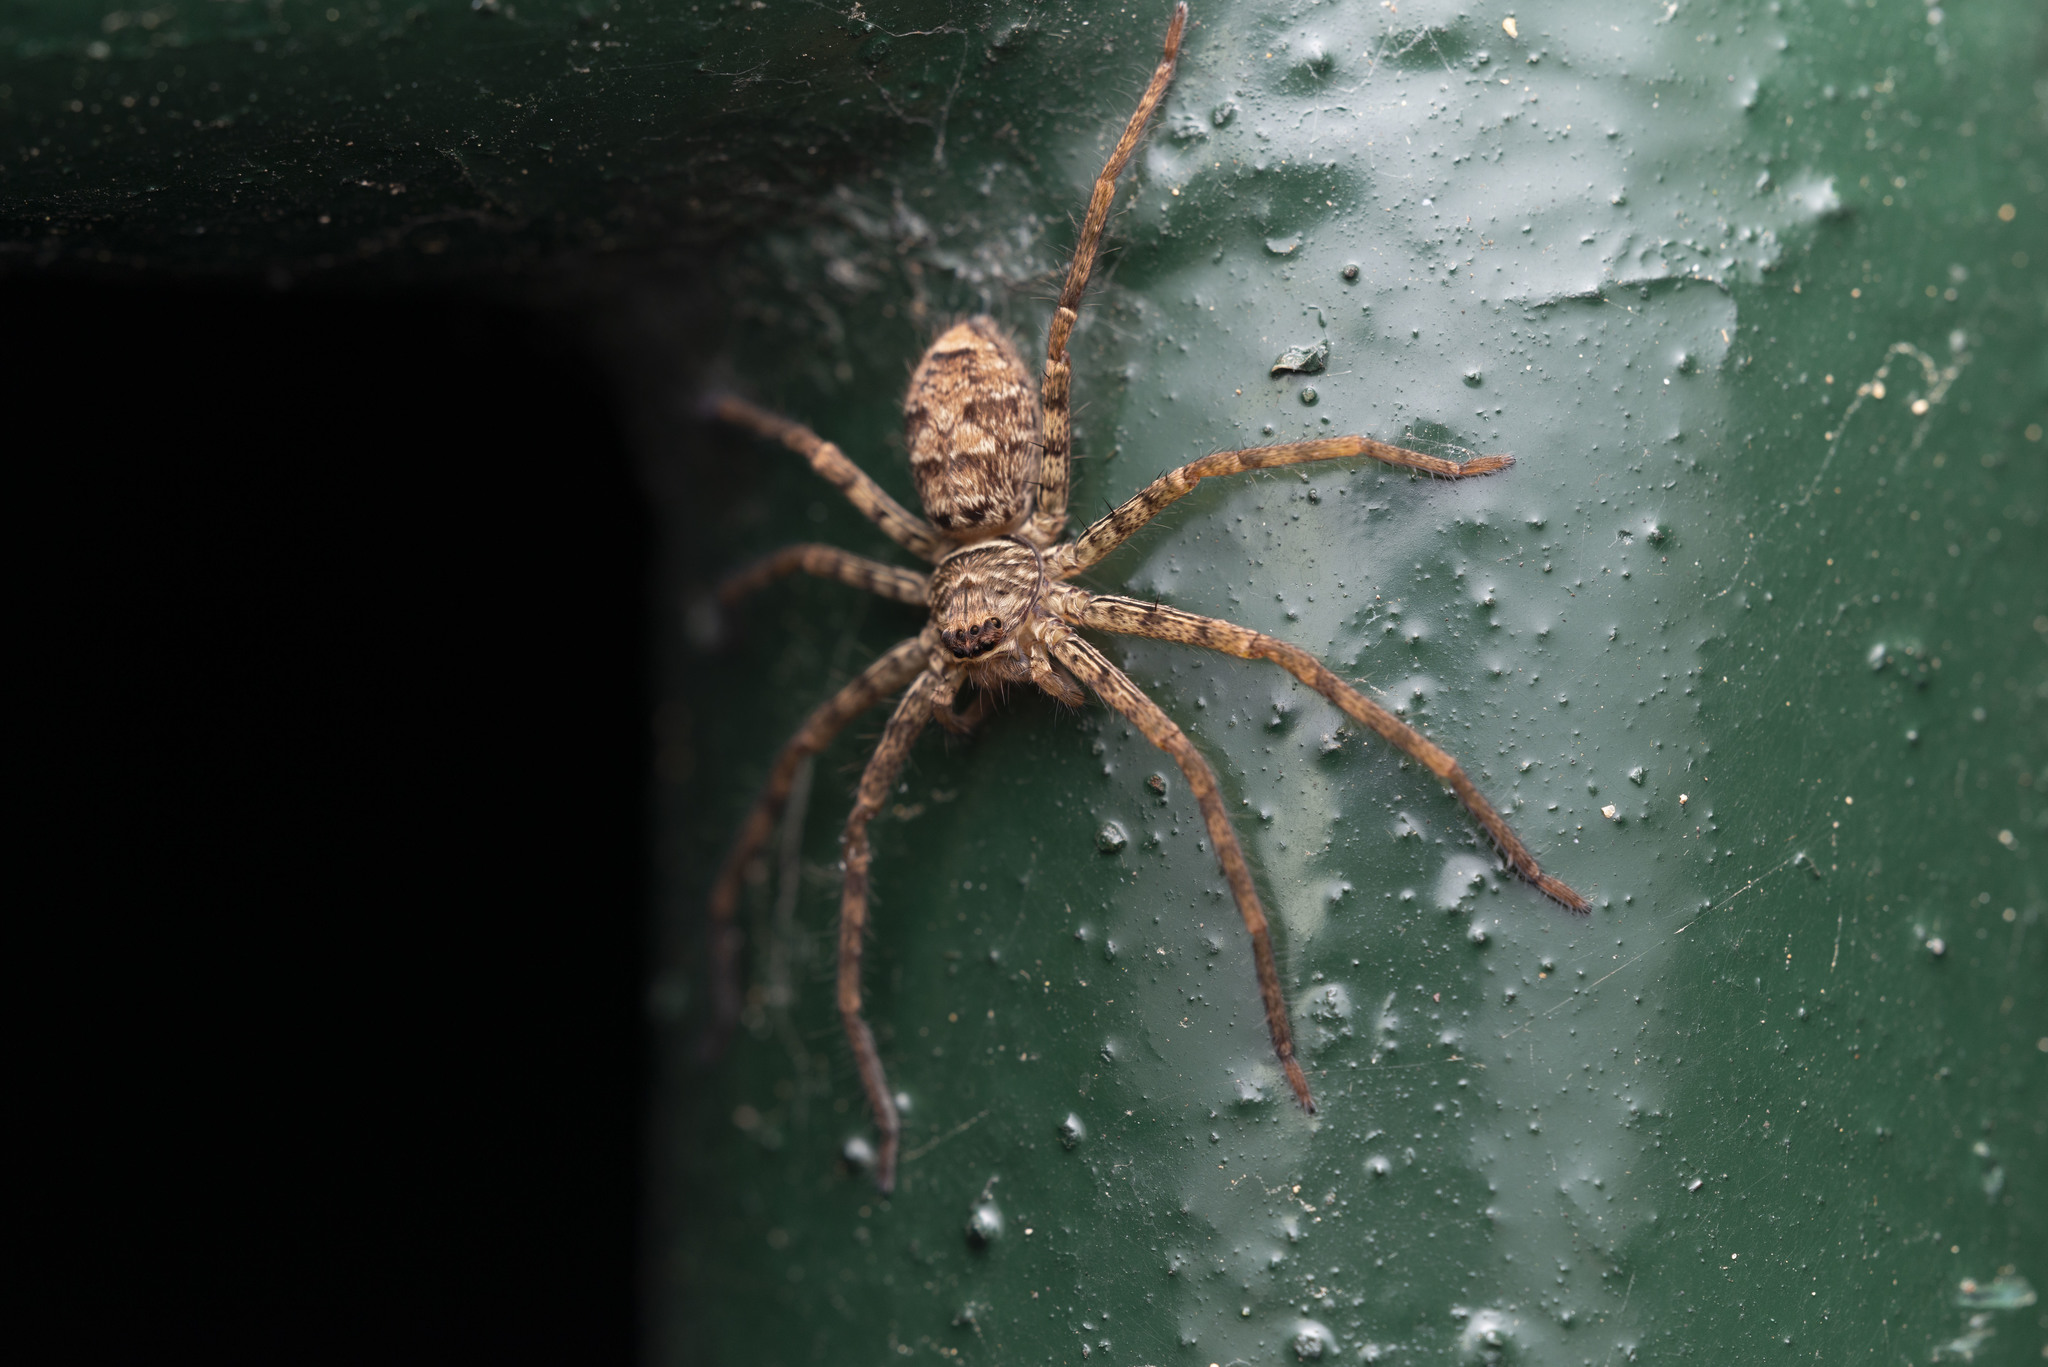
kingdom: Animalia
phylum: Arthropoda
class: Arachnida
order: Araneae
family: Sparassidae
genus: Heteropoda
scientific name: Heteropoda venatoria
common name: Huntsman spider
